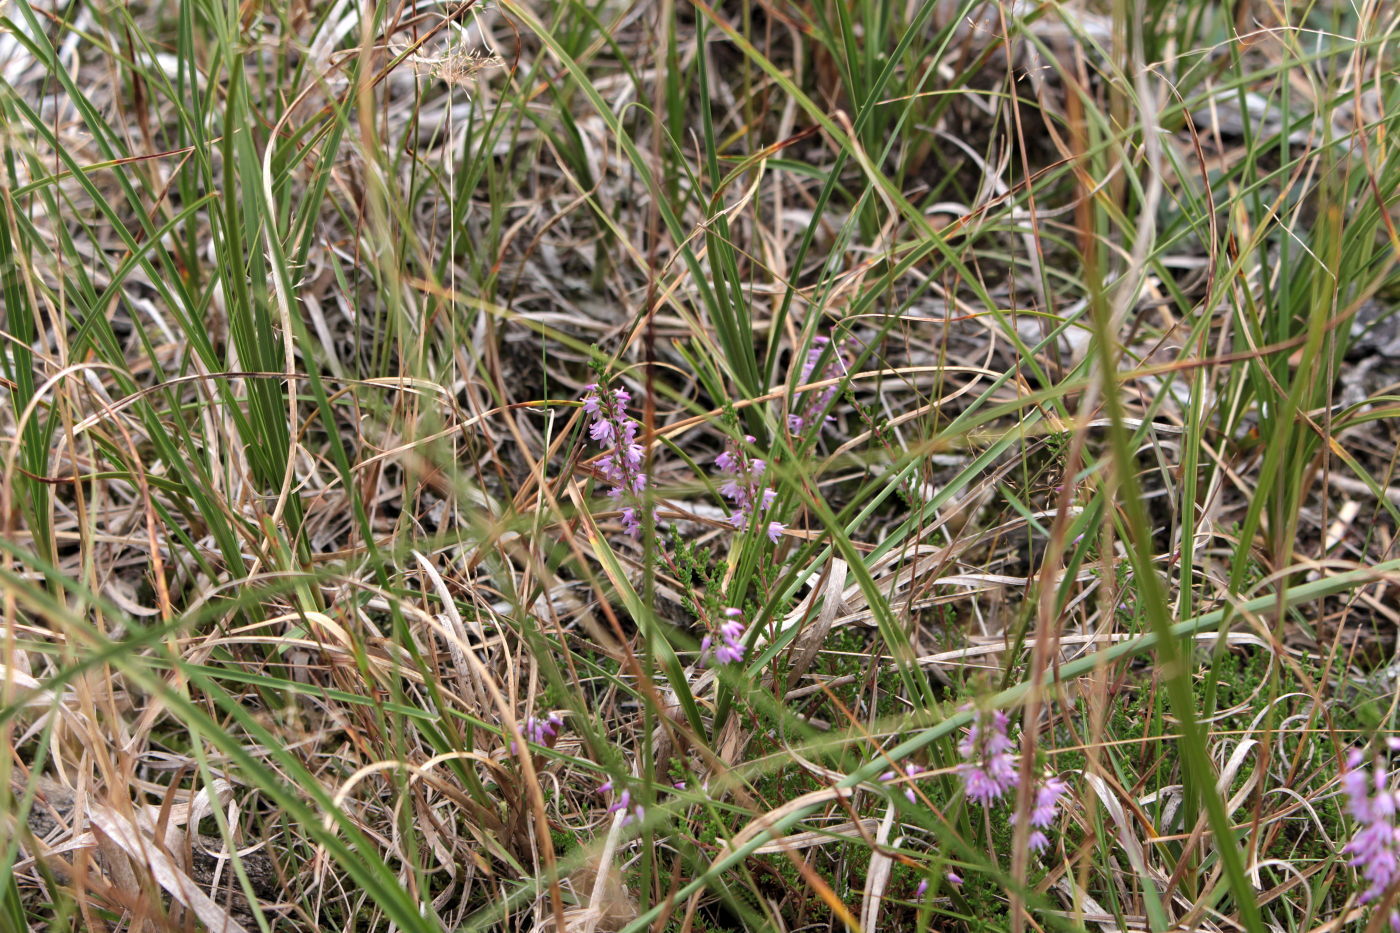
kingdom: Plantae
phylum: Tracheophyta
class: Magnoliopsida
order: Ericales
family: Ericaceae
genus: Calluna
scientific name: Calluna vulgaris
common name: Heather
